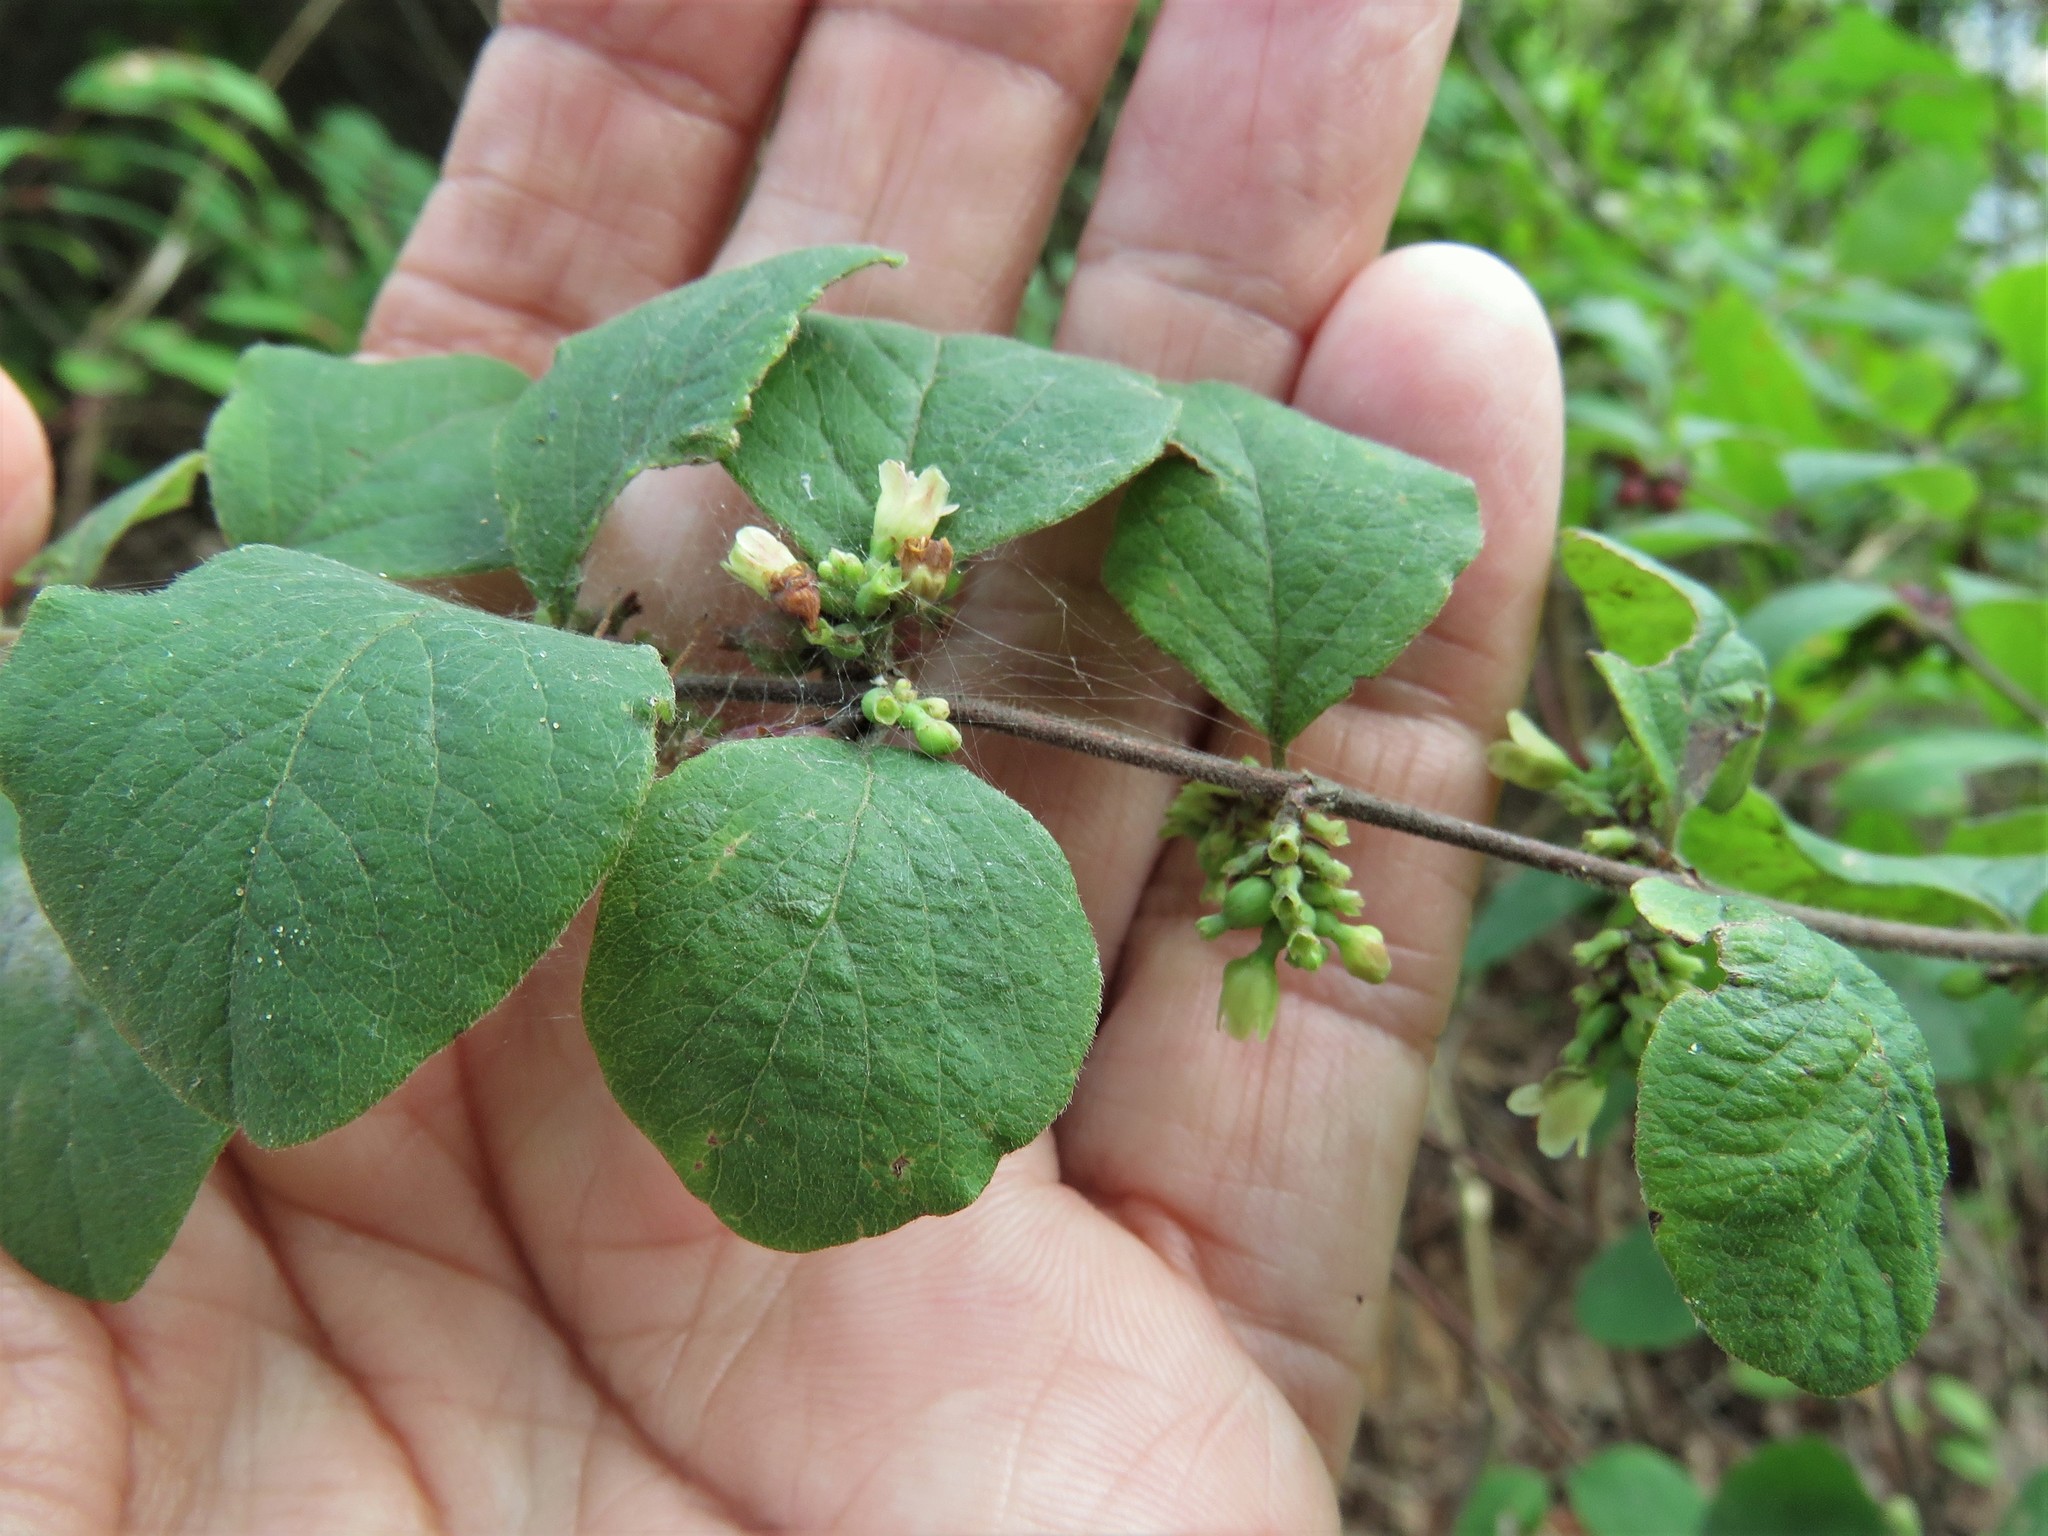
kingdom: Plantae
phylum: Tracheophyta
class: Magnoliopsida
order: Dipsacales
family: Caprifoliaceae
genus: Symphoricarpos
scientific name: Symphoricarpos orbiculatus
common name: Coralberry
